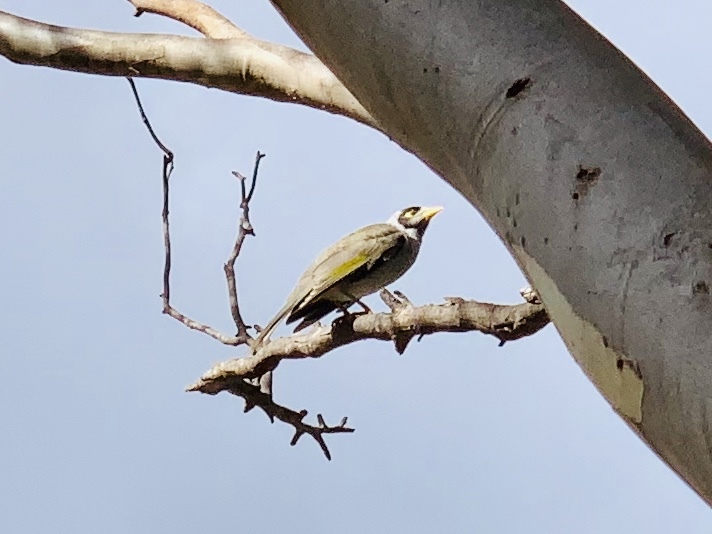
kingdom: Animalia
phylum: Chordata
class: Aves
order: Passeriformes
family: Meliphagidae
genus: Manorina
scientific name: Manorina melanocephala
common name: Noisy miner
